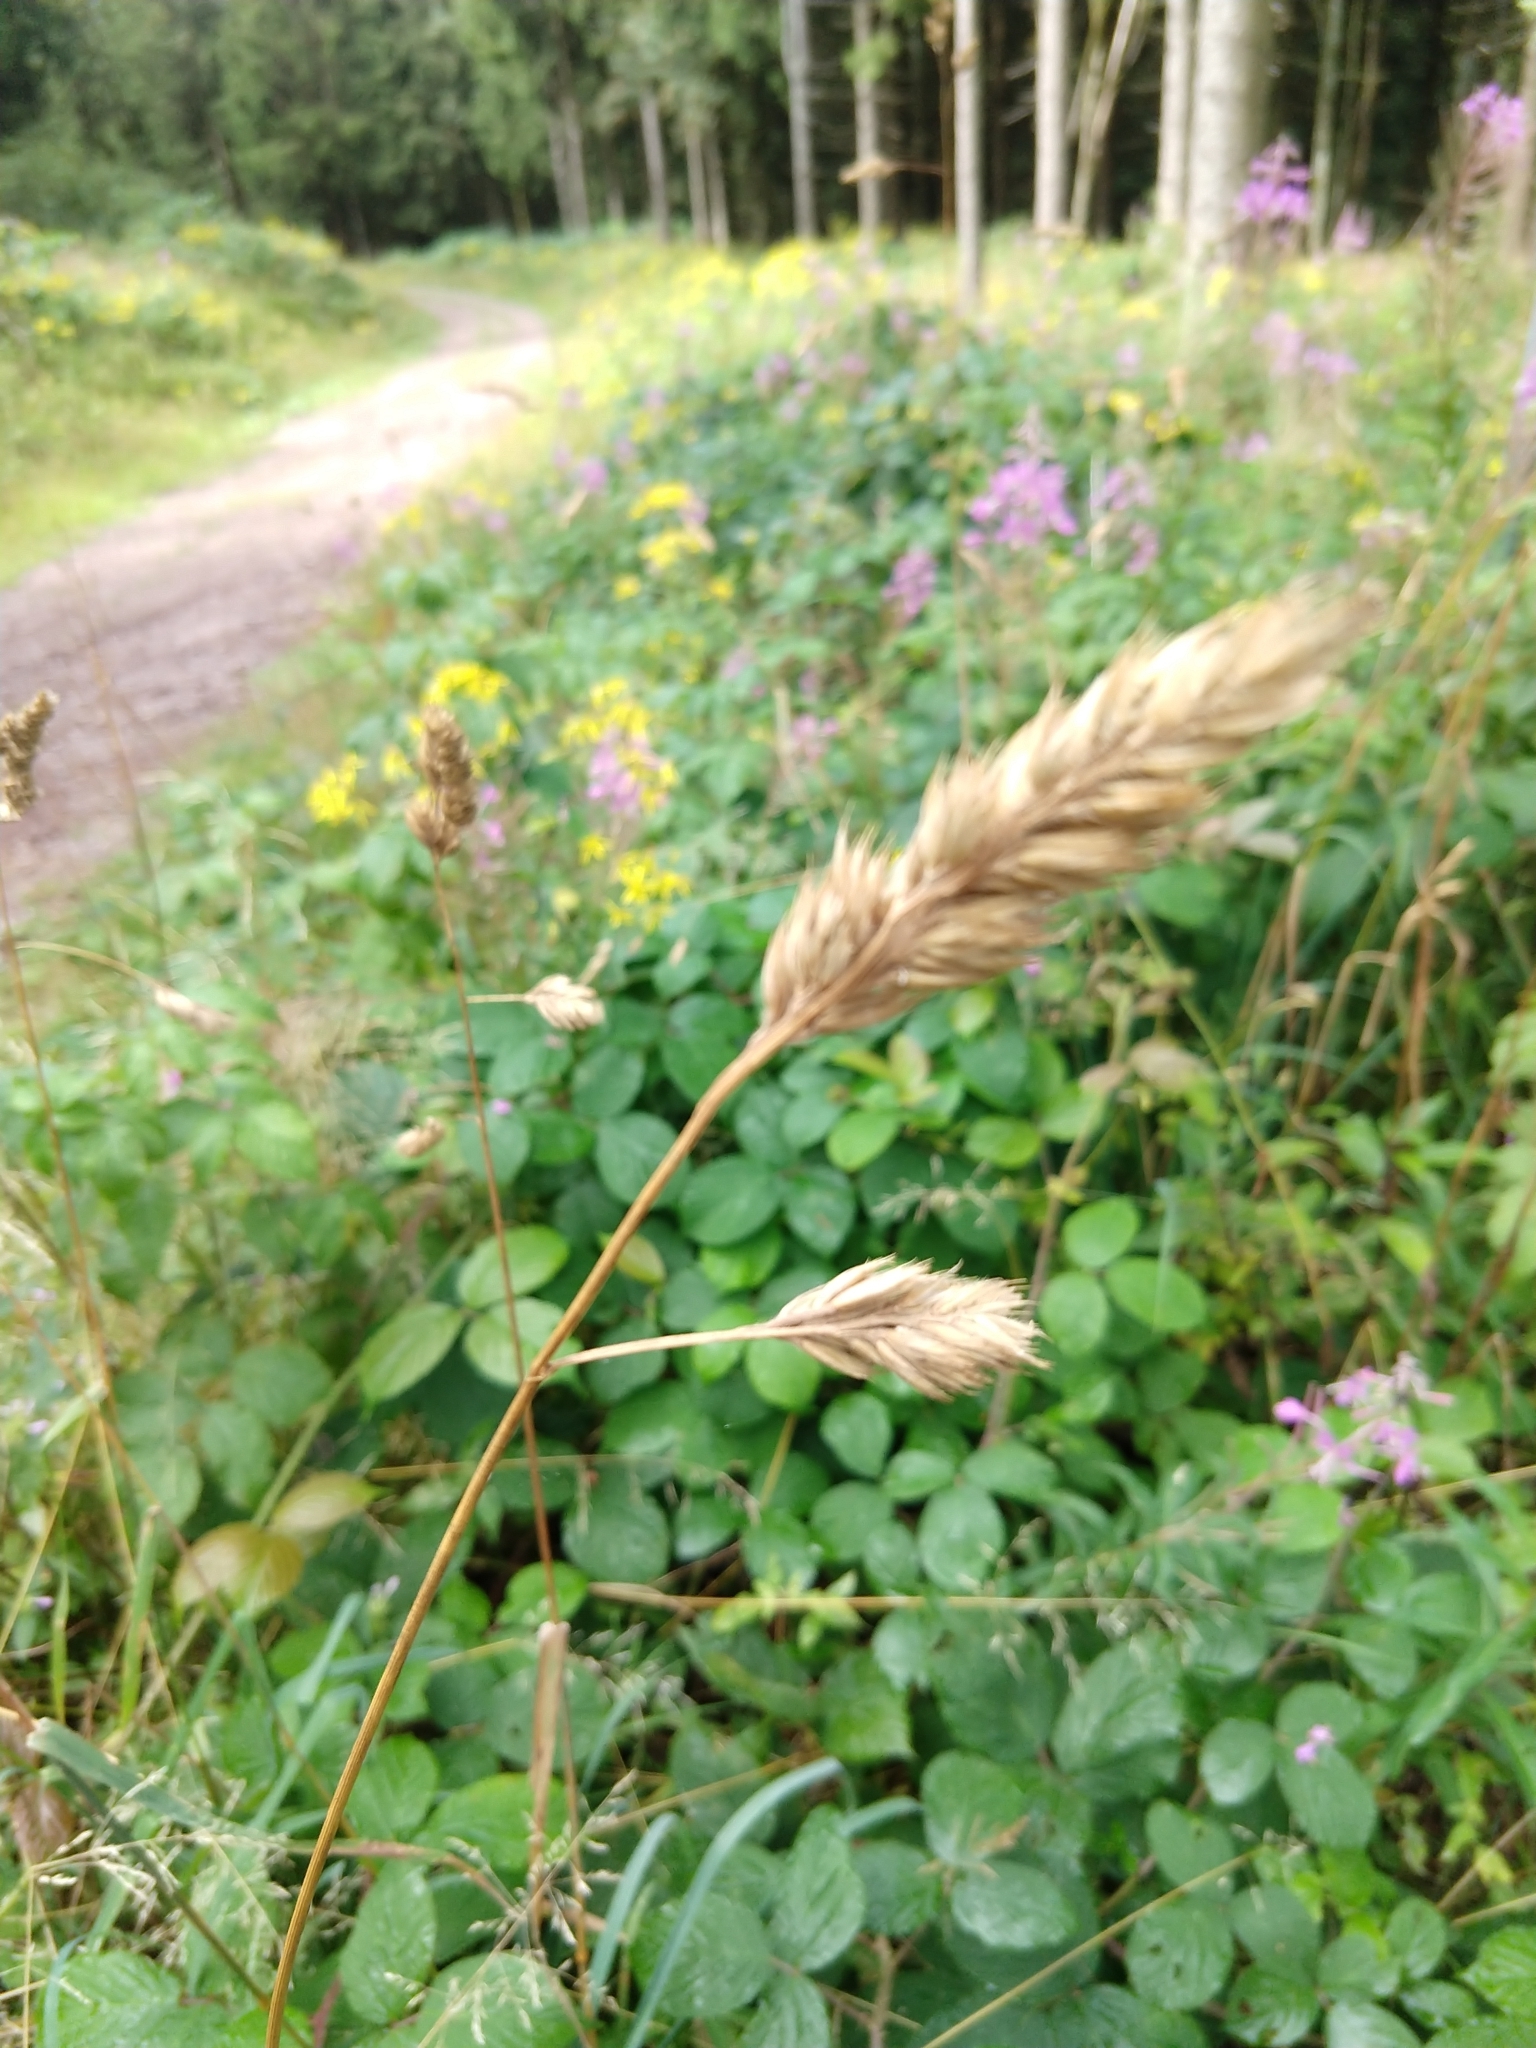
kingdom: Plantae
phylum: Tracheophyta
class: Liliopsida
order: Poales
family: Poaceae
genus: Dactylis
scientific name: Dactylis glomerata
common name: Orchardgrass
